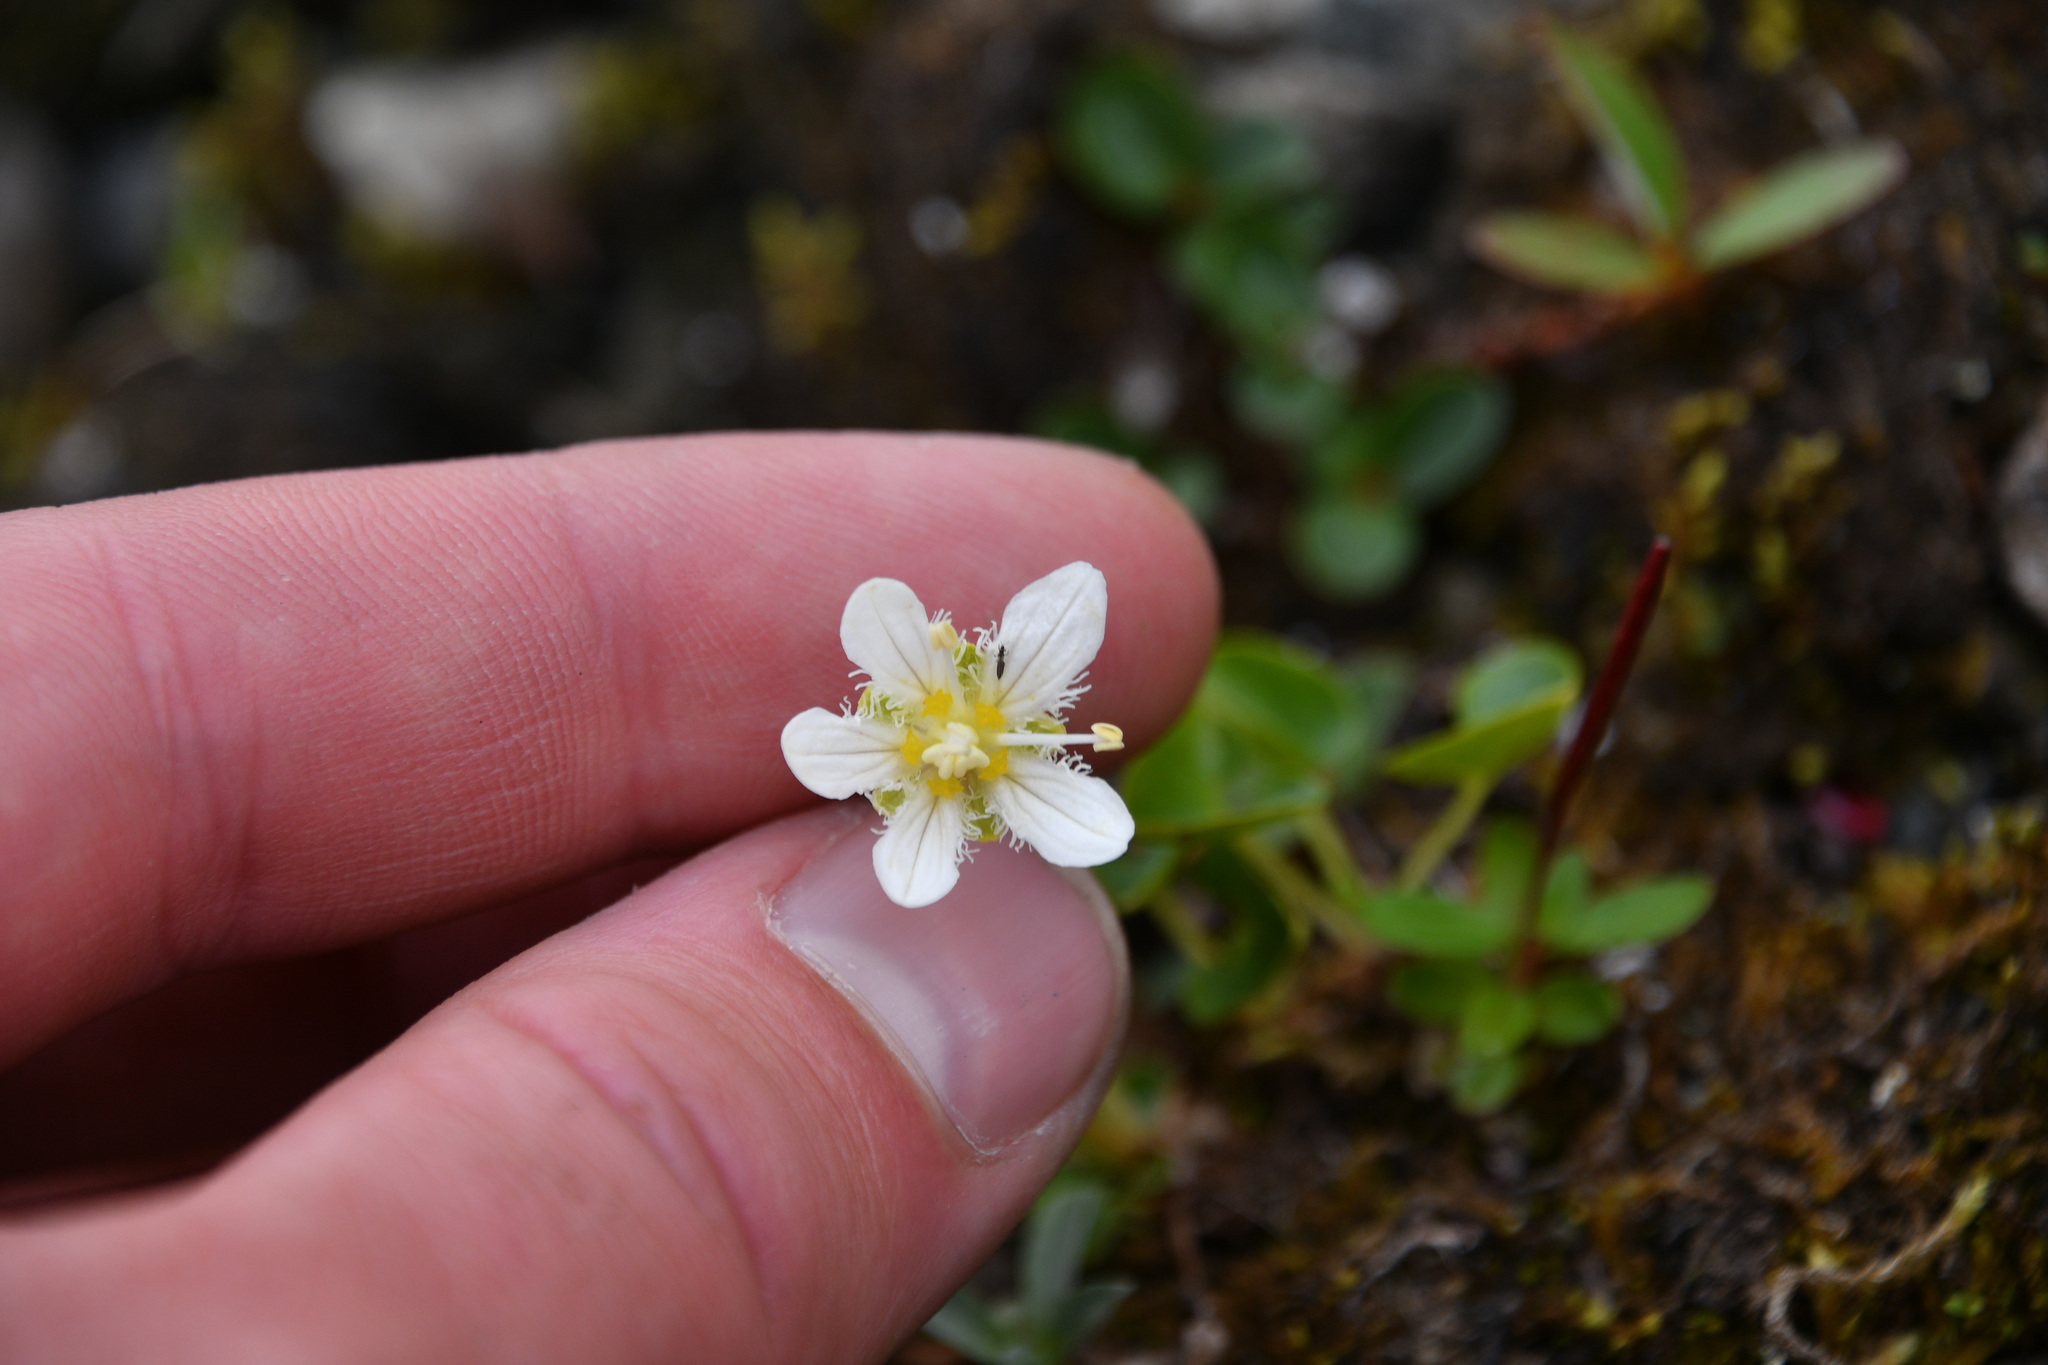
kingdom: Plantae
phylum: Tracheophyta
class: Magnoliopsida
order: Celastrales
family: Parnassiaceae
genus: Parnassia
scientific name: Parnassia fimbriata
